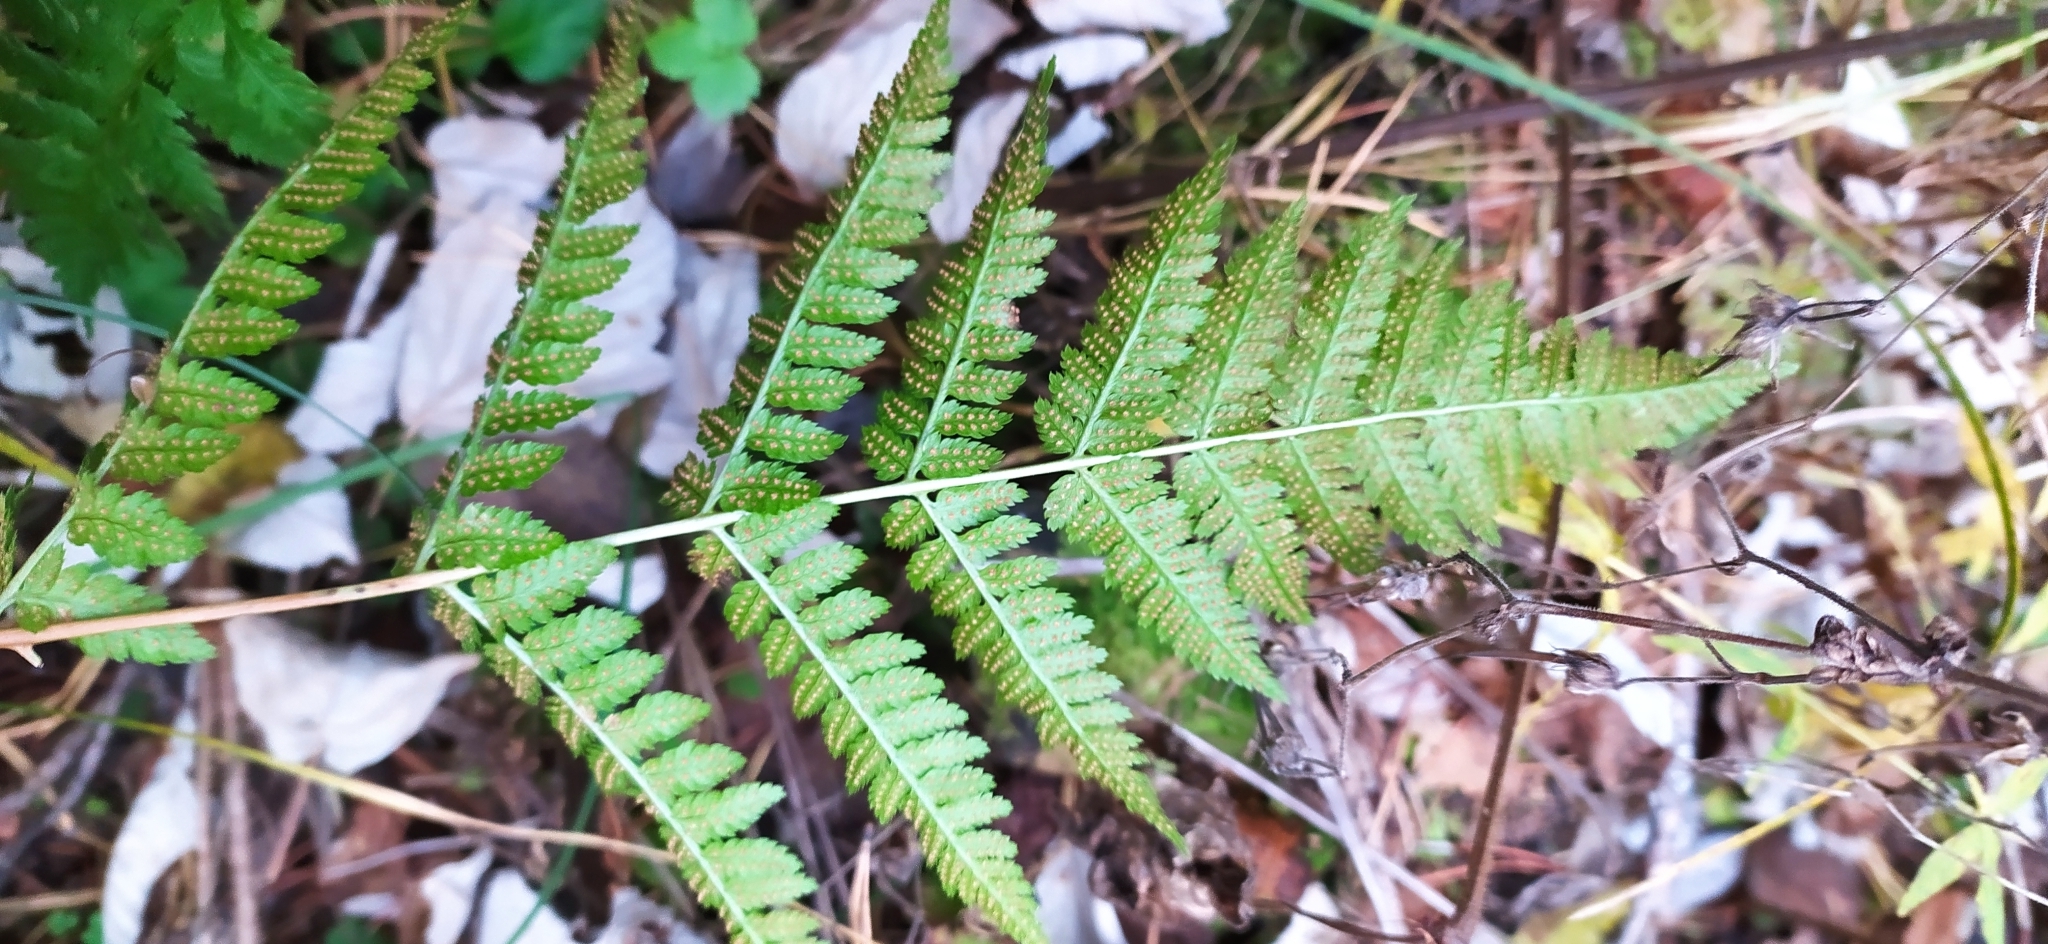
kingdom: Plantae
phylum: Tracheophyta
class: Polypodiopsida
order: Polypodiales
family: Dryopteridaceae
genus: Dryopteris
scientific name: Dryopteris carthusiana
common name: Narrow buckler-fern
